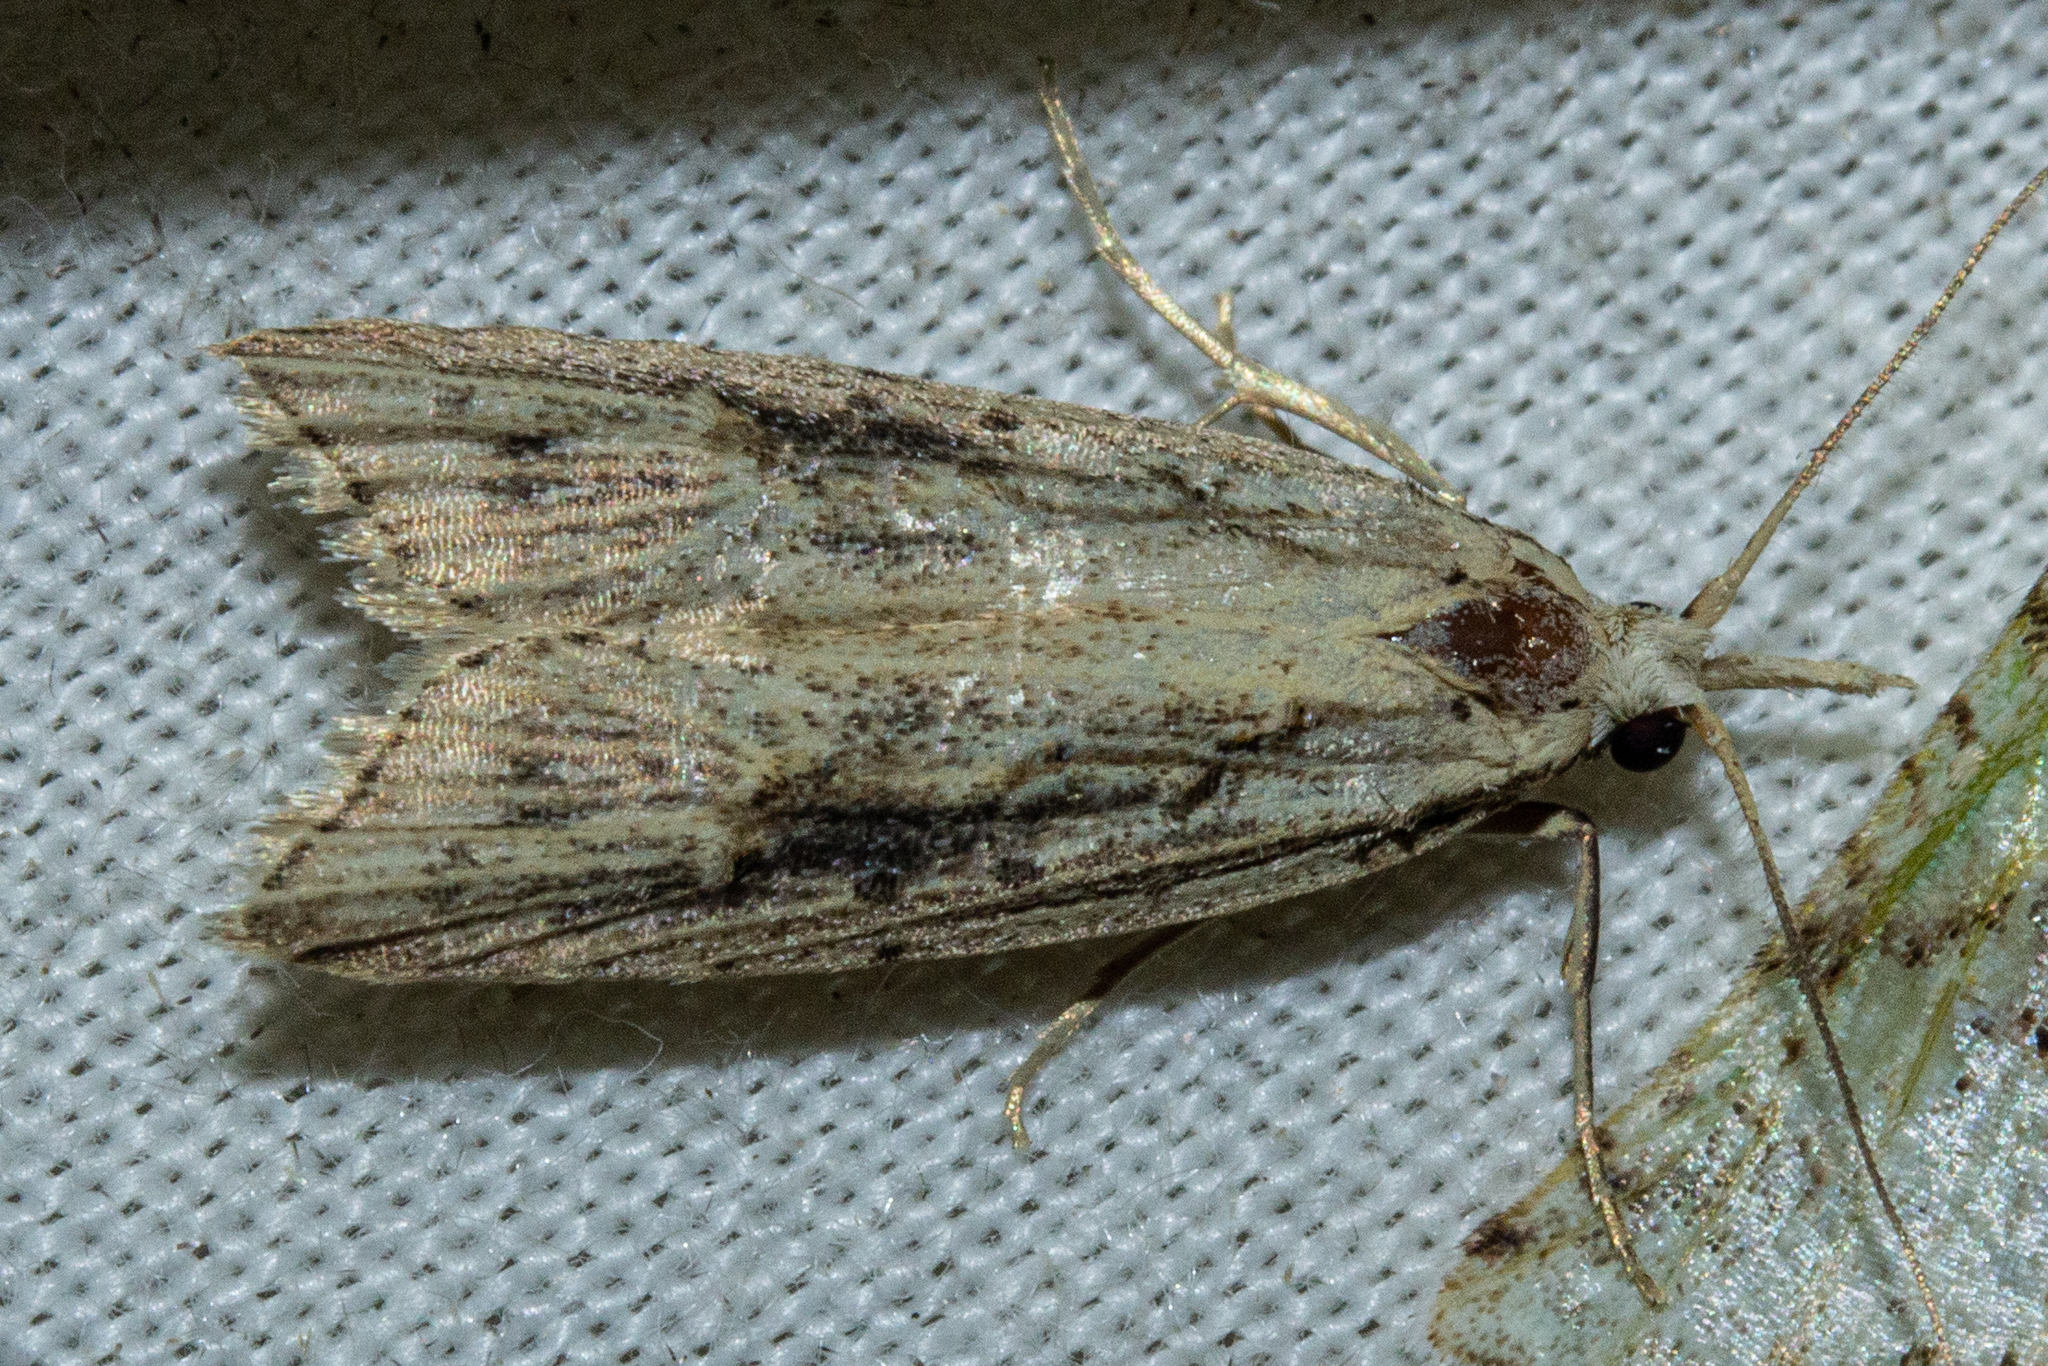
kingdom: Animalia
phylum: Arthropoda
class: Insecta
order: Lepidoptera
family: Carposinidae
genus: Carposina
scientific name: Carposina Heterocrossa exochana
